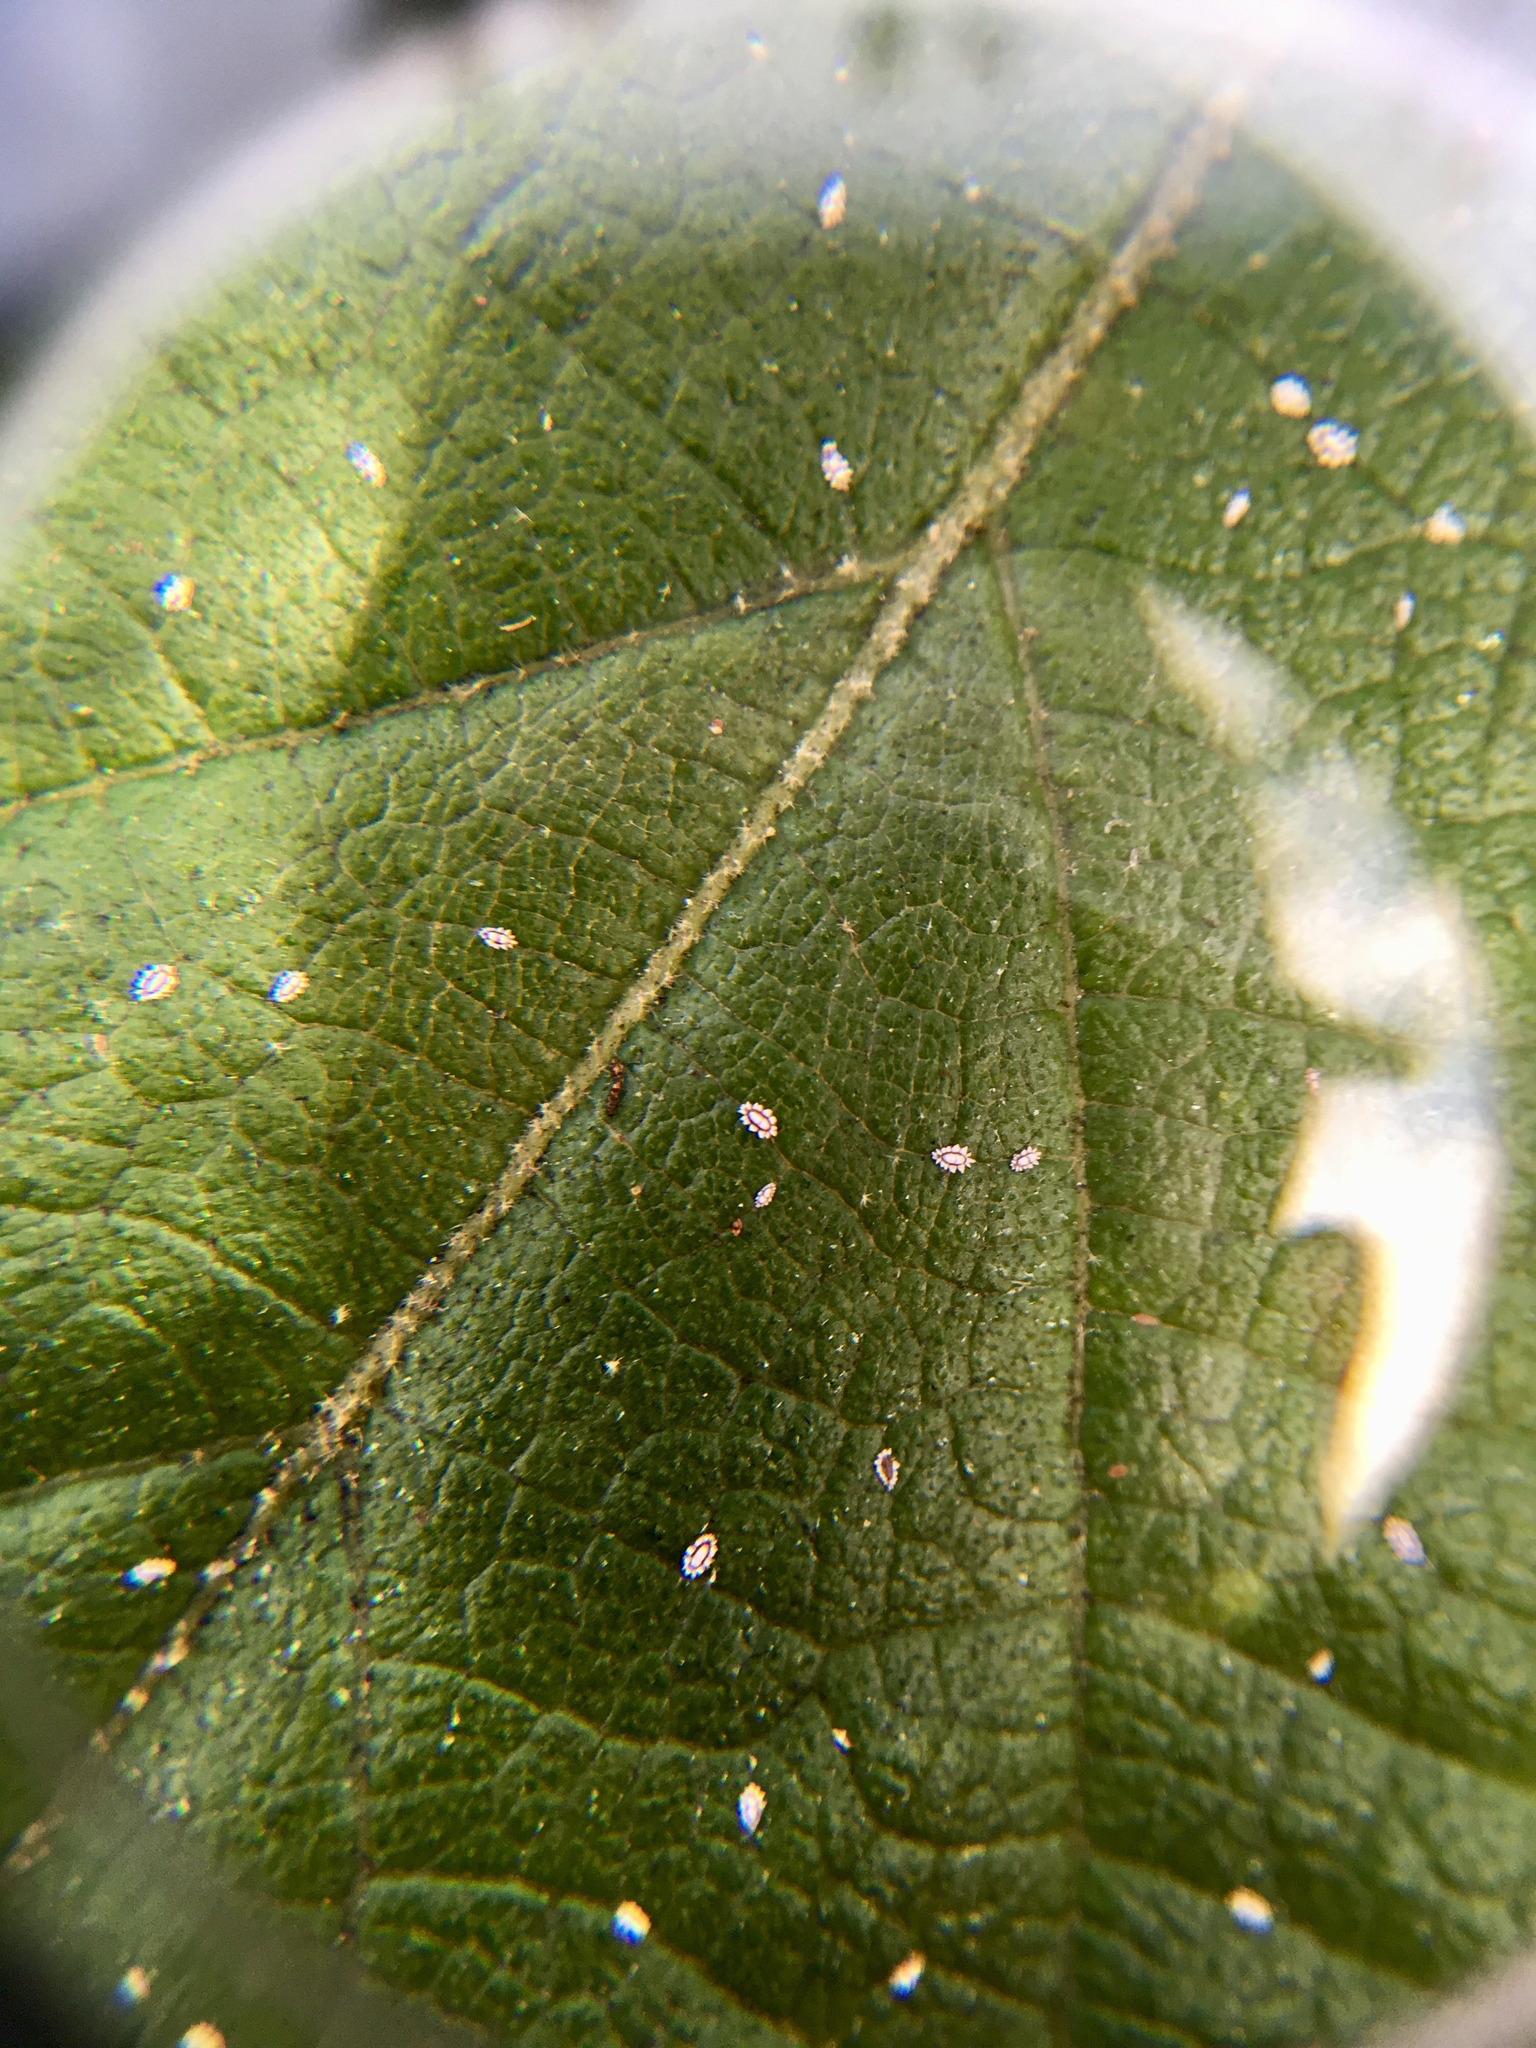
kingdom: Animalia
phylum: Arthropoda
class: Insecta
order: Hemiptera
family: Coccidae
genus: Ceroplastes
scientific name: Ceroplastes floridensis
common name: Florida wax scale
